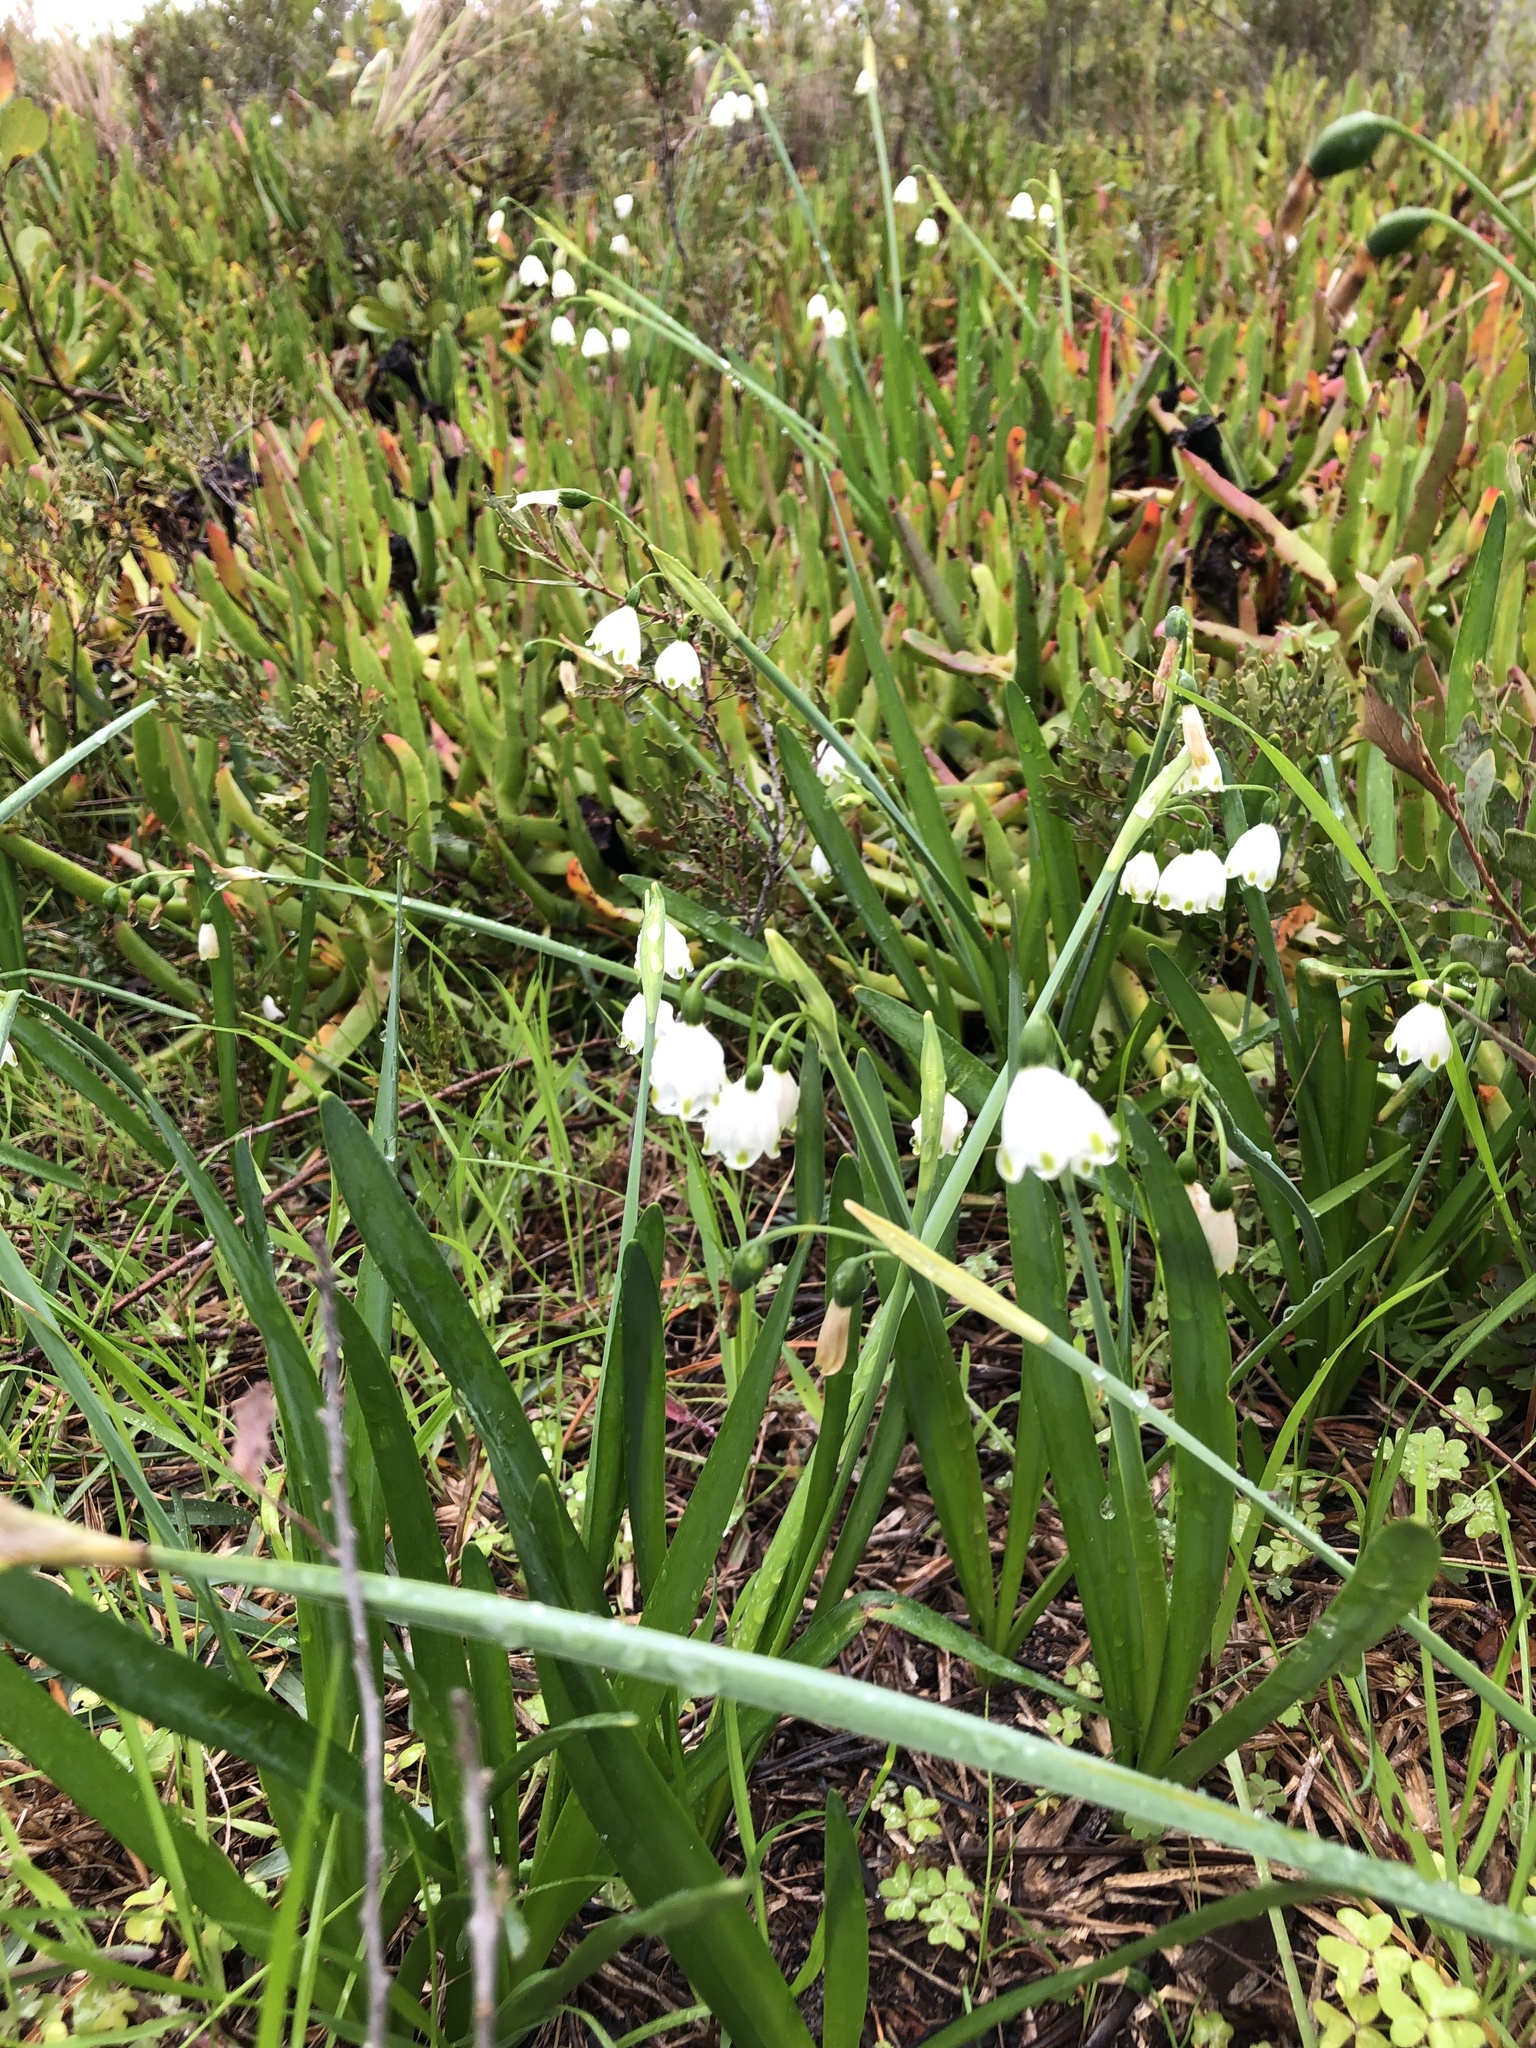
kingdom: Plantae
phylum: Tracheophyta
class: Liliopsida
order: Asparagales
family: Amaryllidaceae
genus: Leucojum
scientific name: Leucojum aestivum
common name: Summer snowflake
